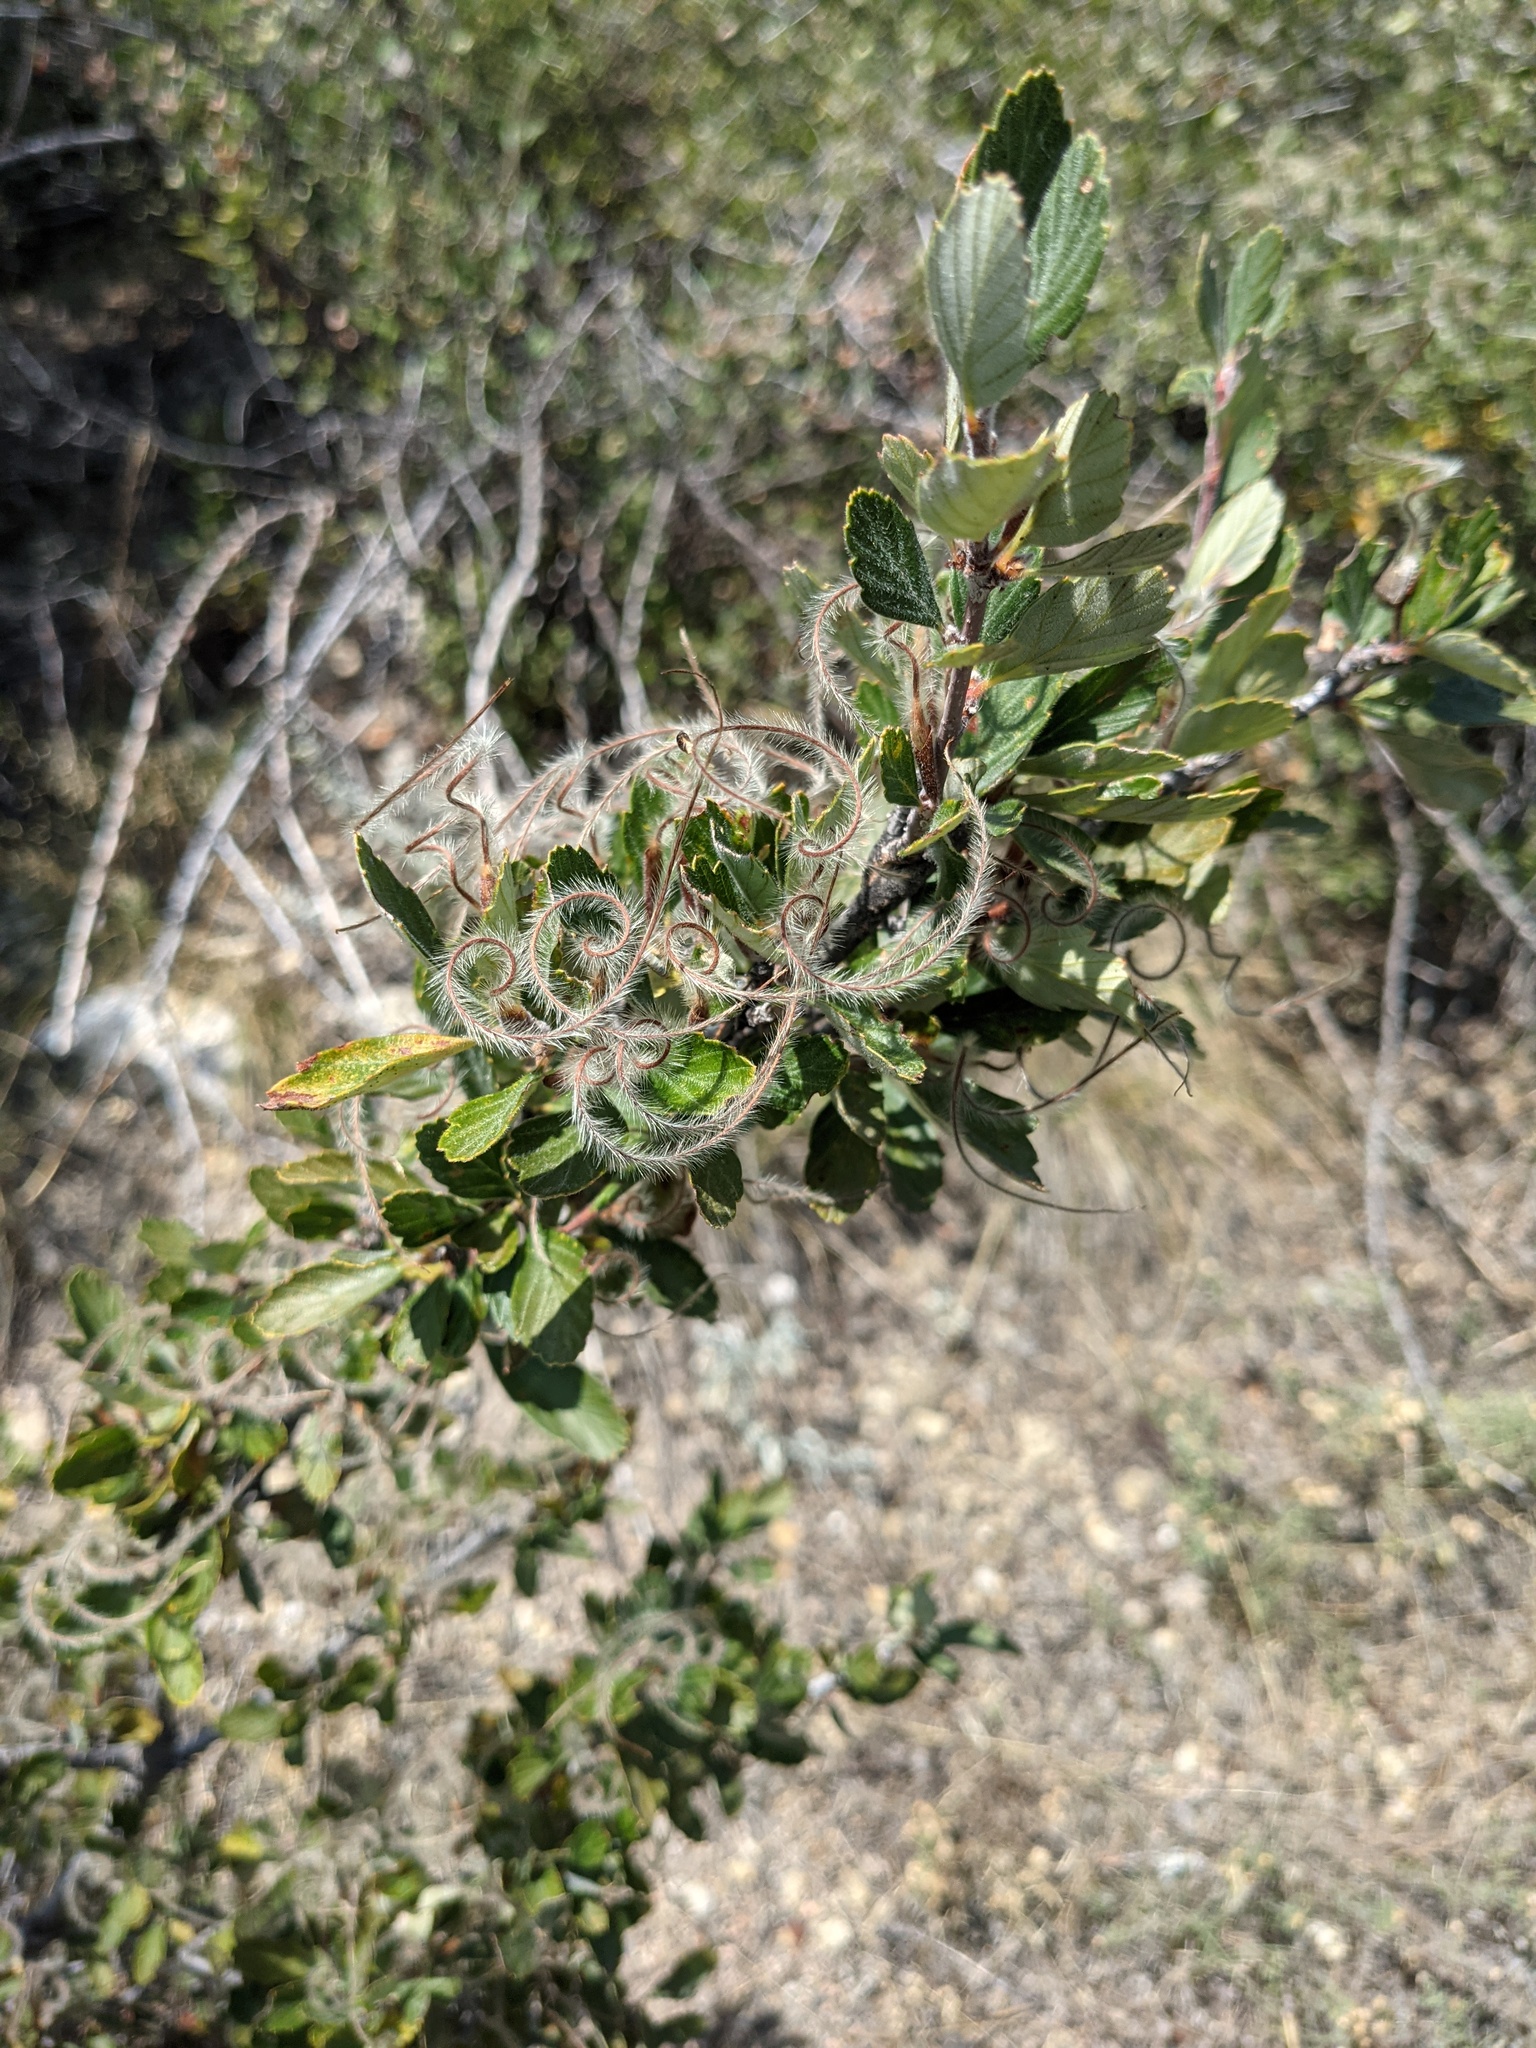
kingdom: Plantae
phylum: Tracheophyta
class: Magnoliopsida
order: Rosales
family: Rosaceae
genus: Cercocarpus
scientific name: Cercocarpus montanus
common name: Alder-leaf cercocarpus
